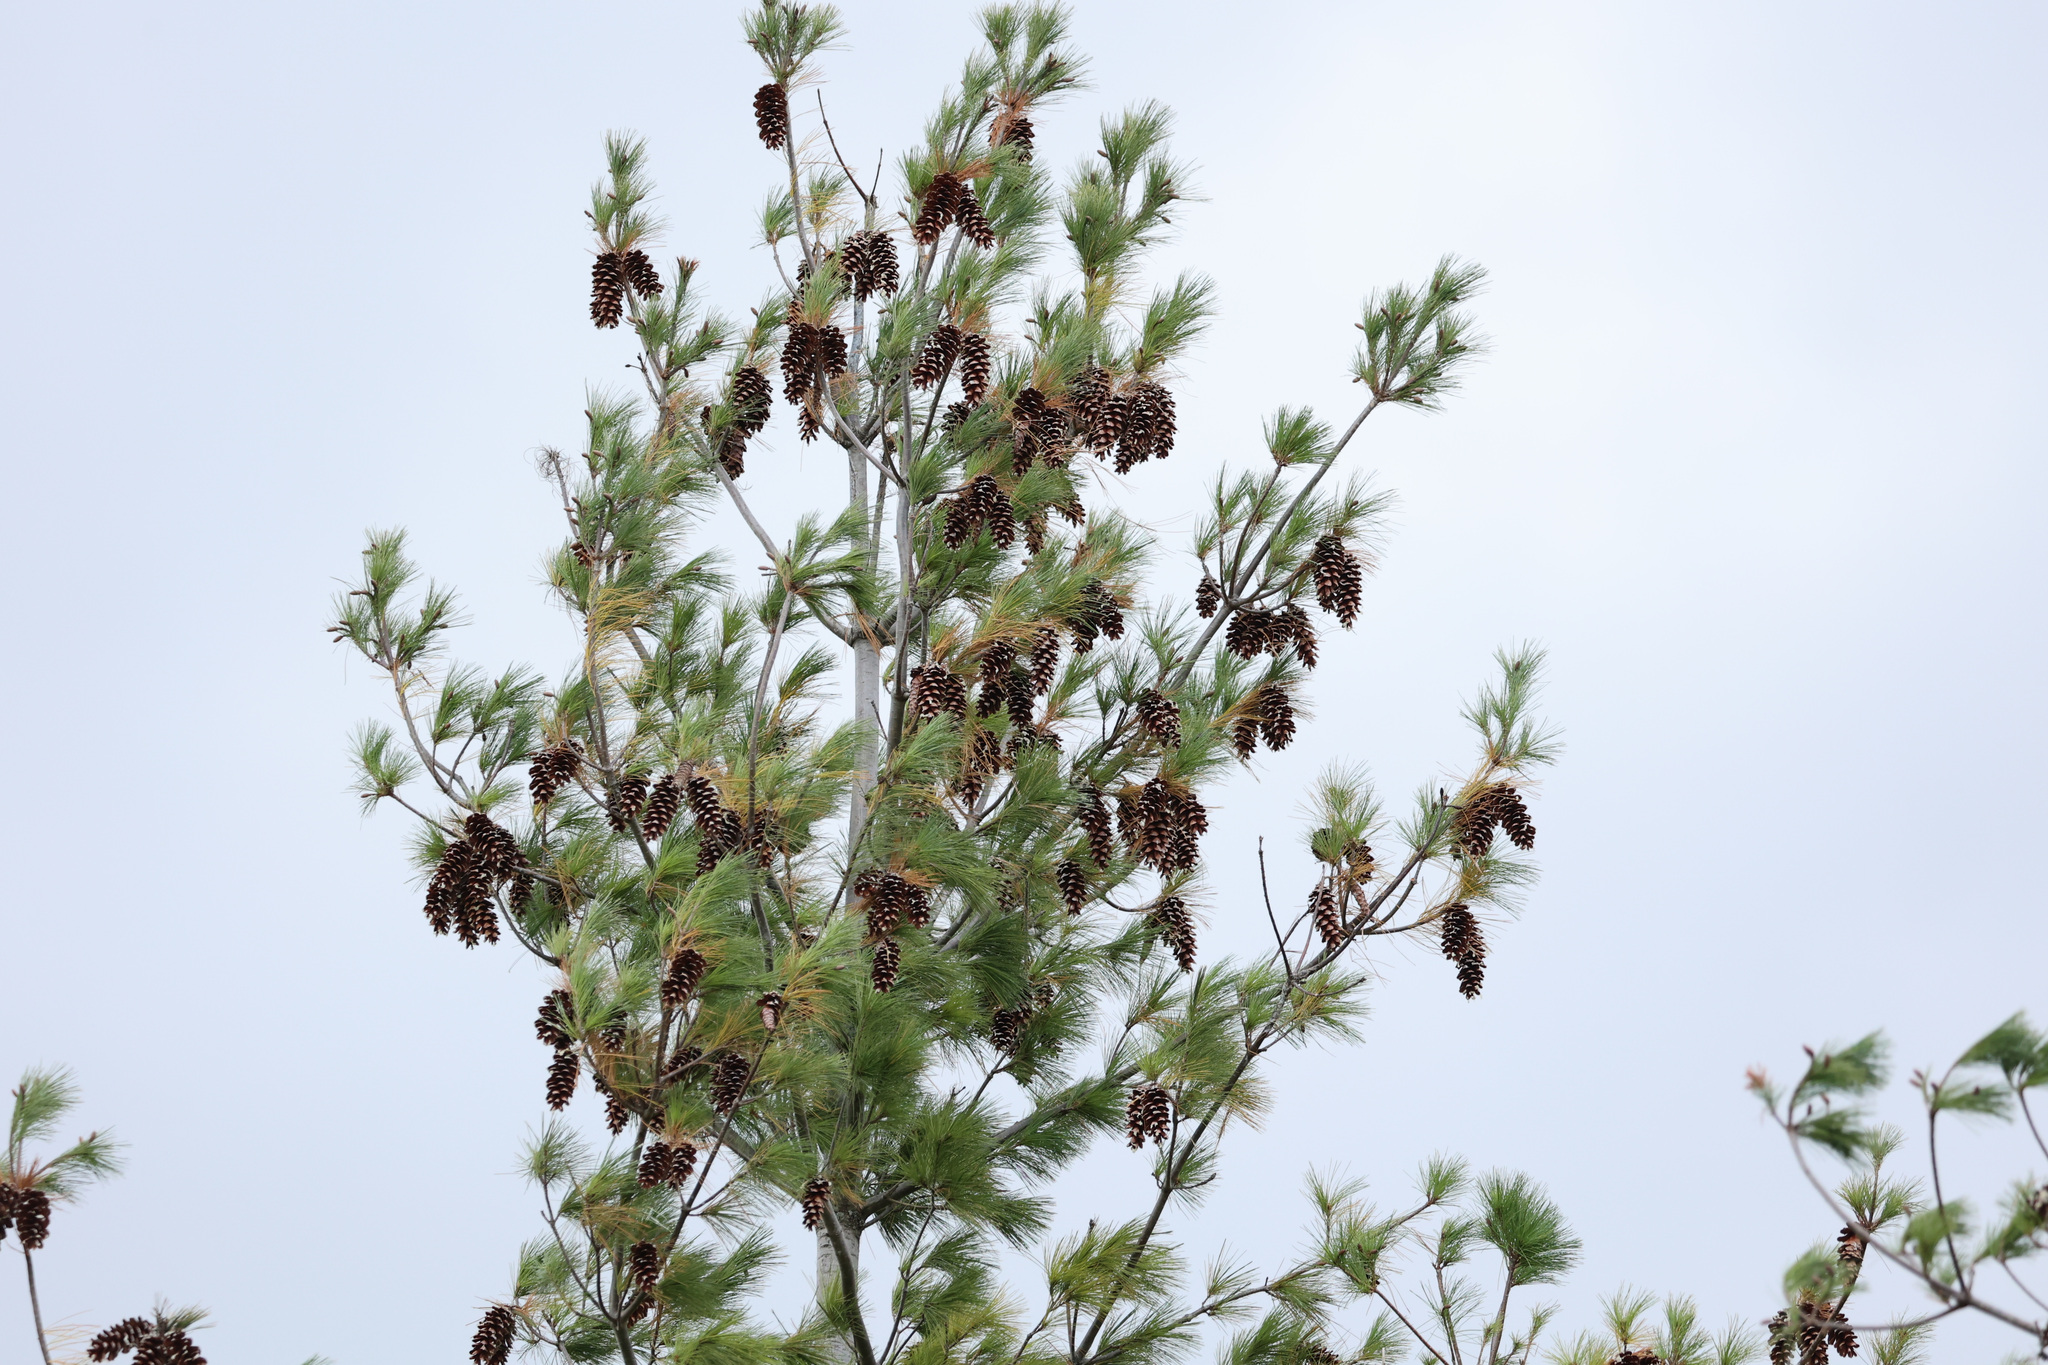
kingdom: Plantae
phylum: Tracheophyta
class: Pinopsida
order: Pinales
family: Pinaceae
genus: Pinus
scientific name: Pinus strobus
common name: Weymouth pine
